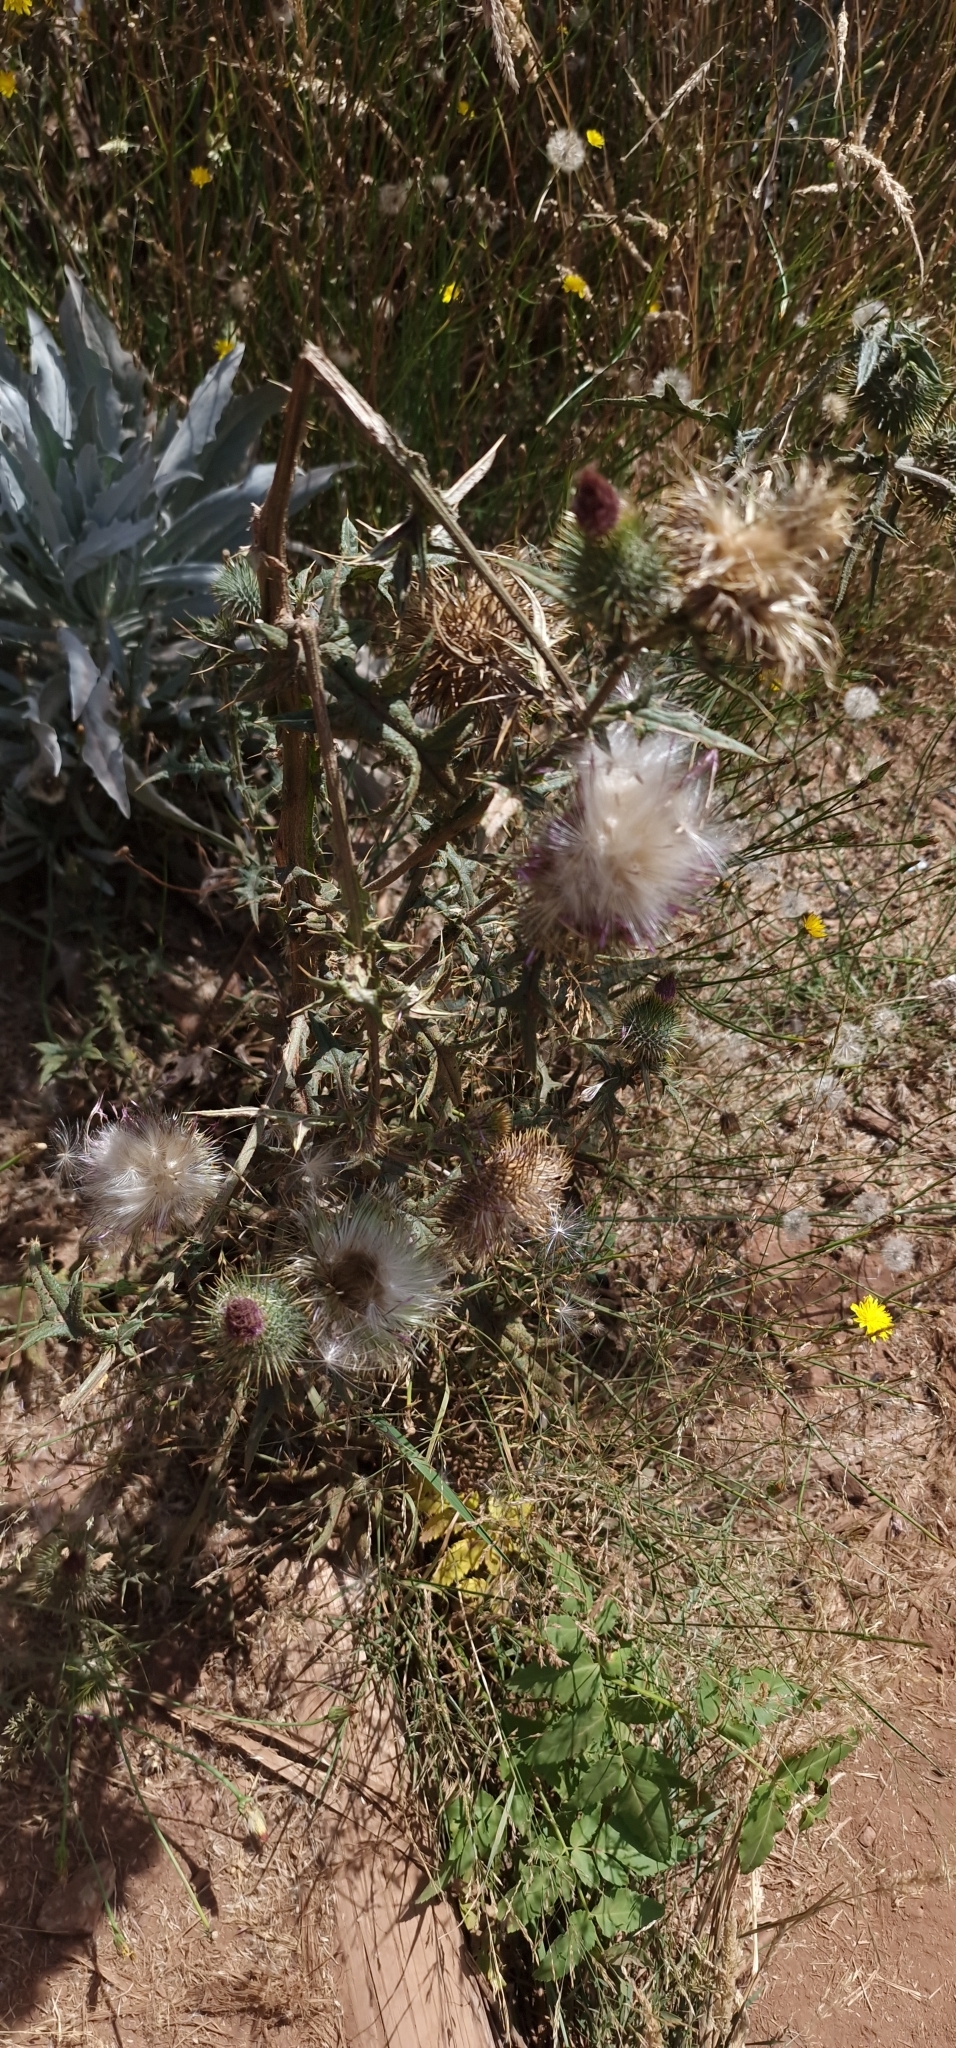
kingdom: Plantae
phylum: Tracheophyta
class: Magnoliopsida
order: Asterales
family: Asteraceae
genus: Cirsium
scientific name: Cirsium vulgare
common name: Bull thistle
